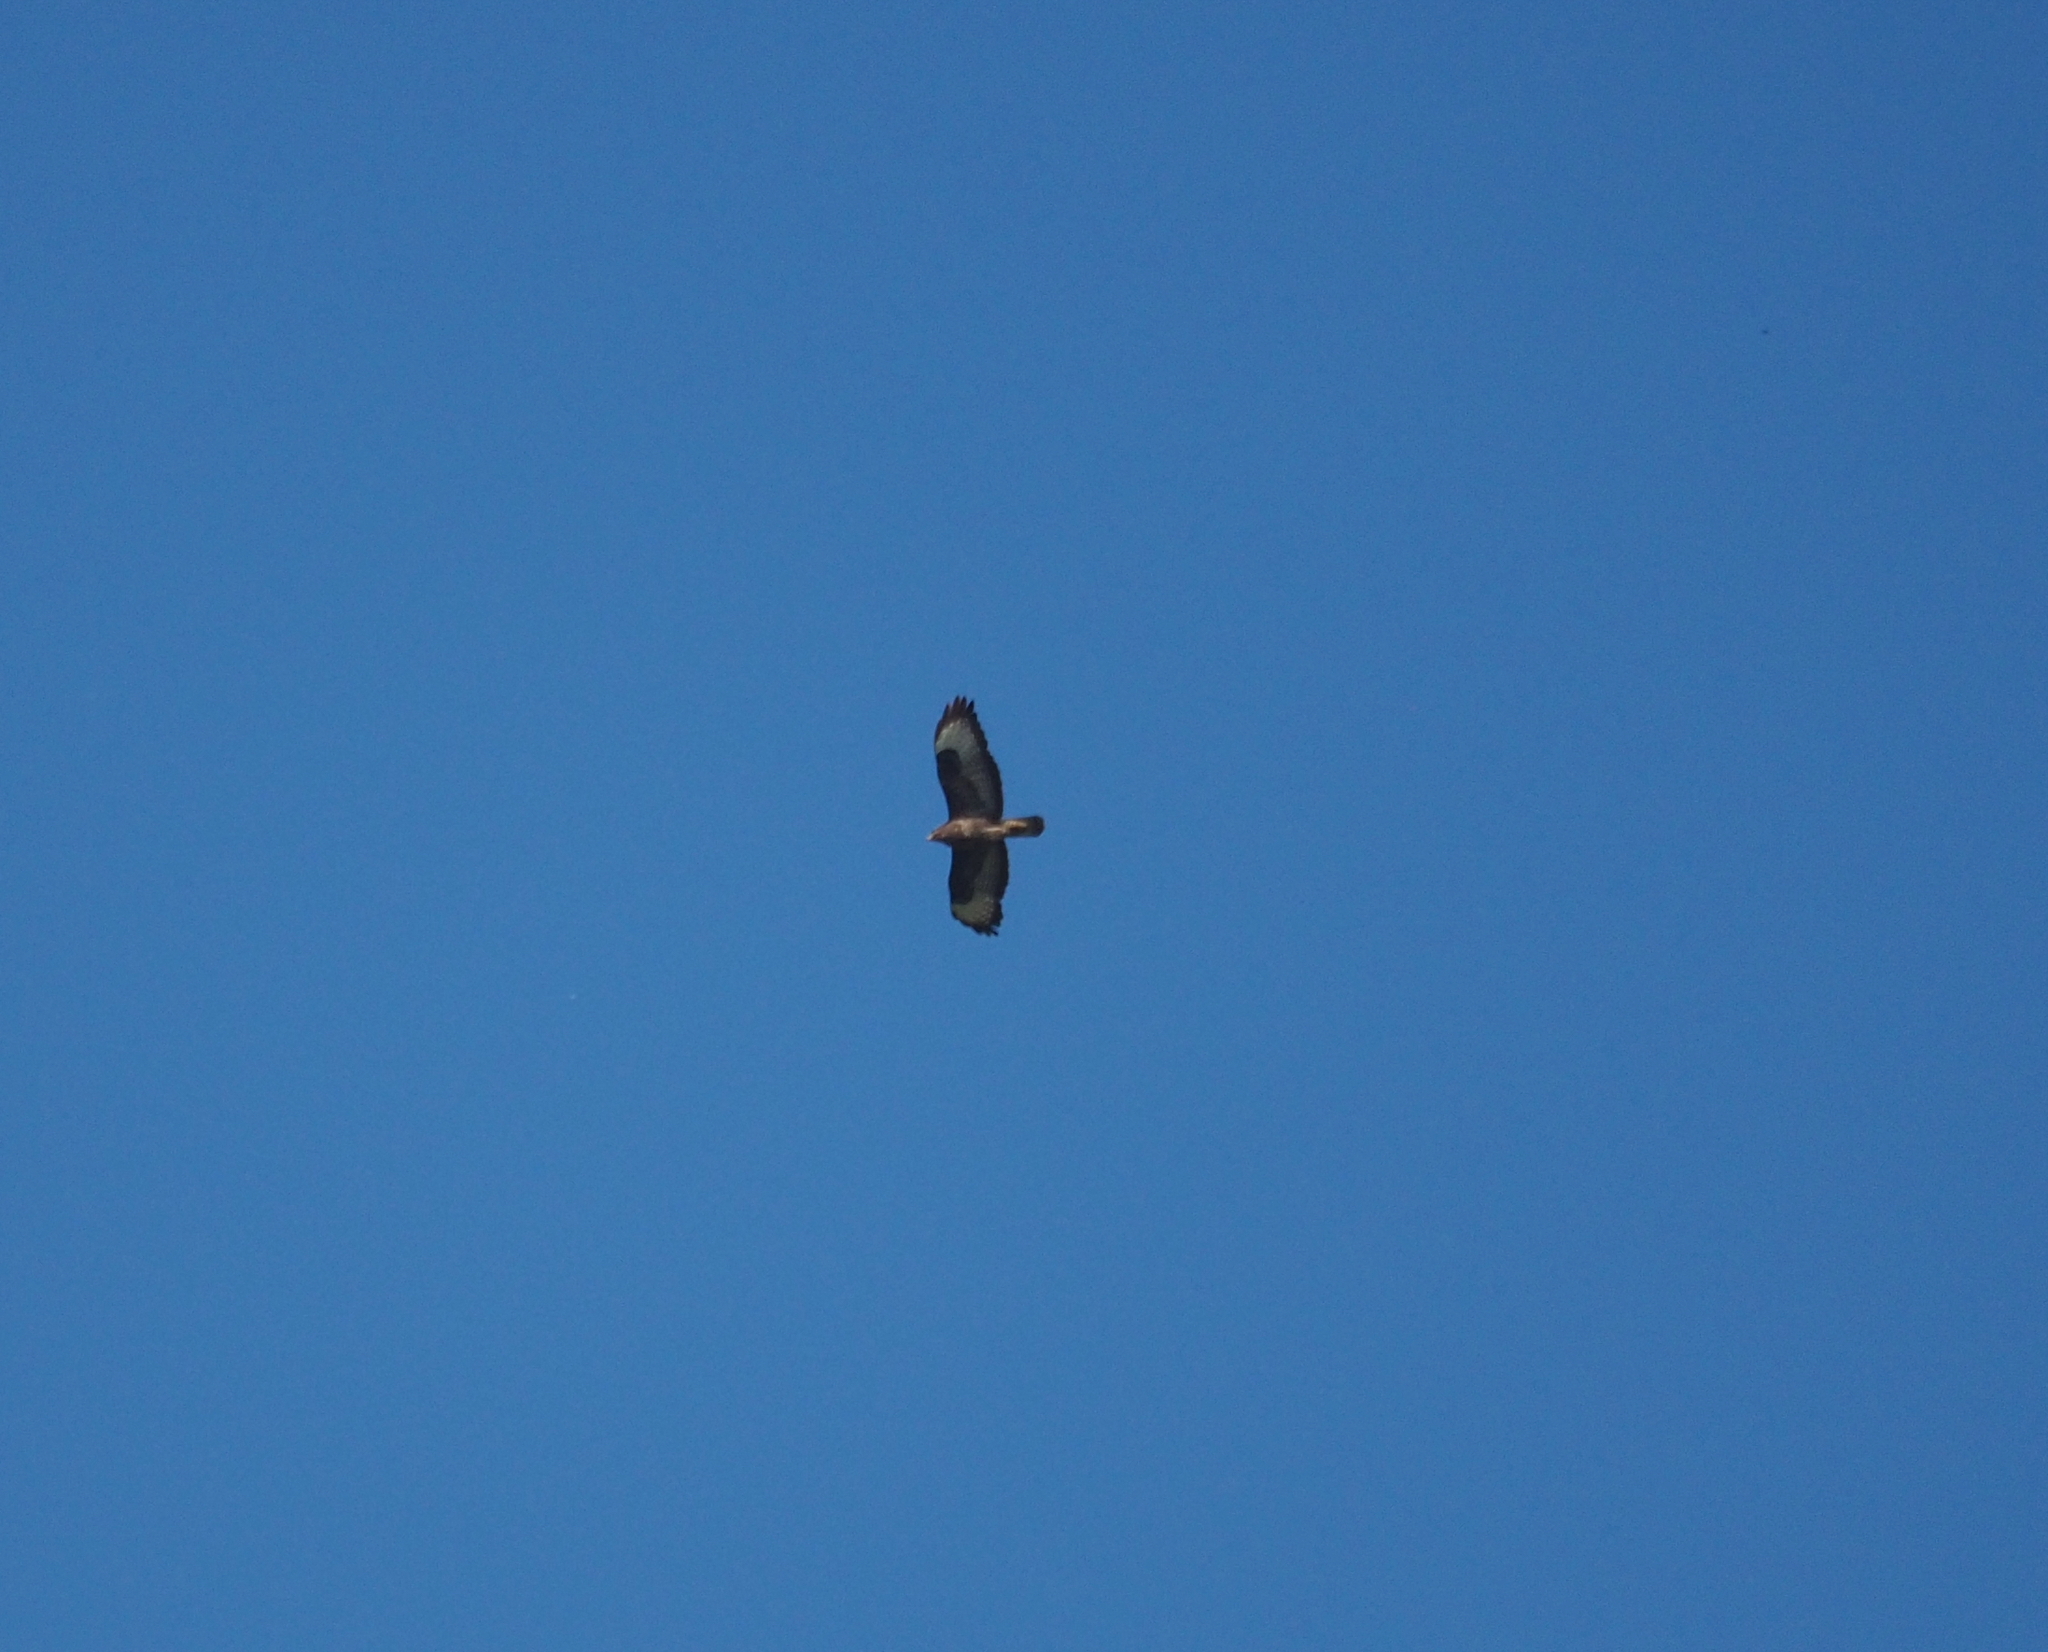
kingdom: Animalia
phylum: Chordata
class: Aves
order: Accipitriformes
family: Accipitridae
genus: Buteo
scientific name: Buteo buteo
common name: Common buzzard
